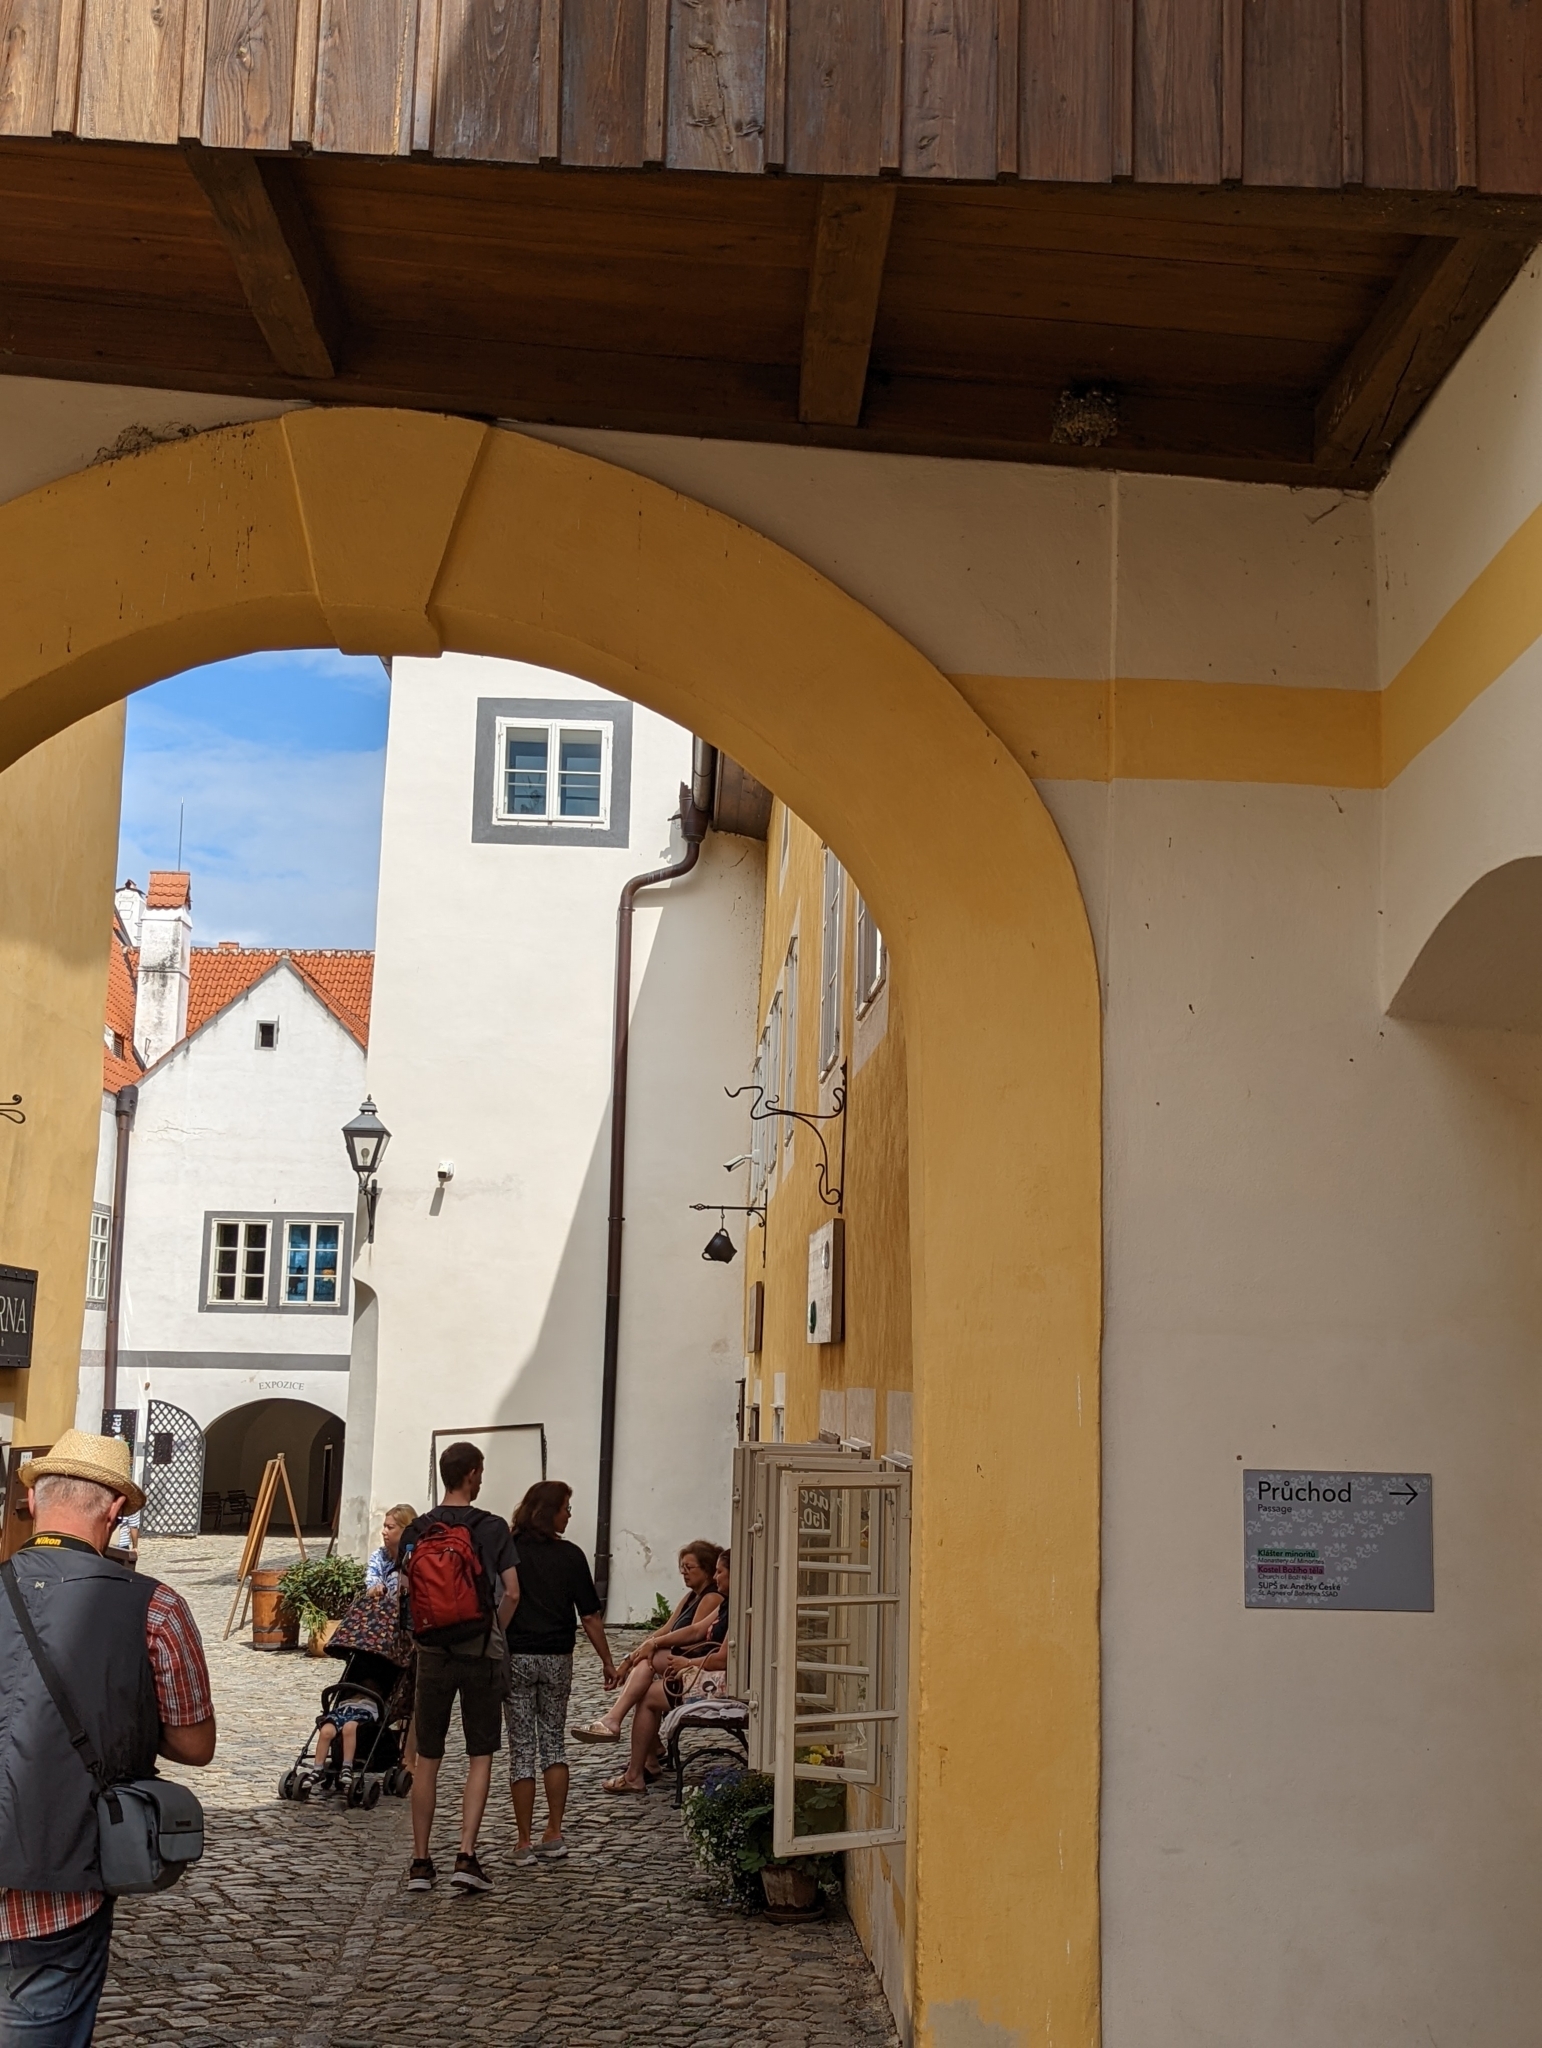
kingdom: Animalia
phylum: Chordata
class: Aves
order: Passeriformes
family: Hirundinidae
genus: Hirundo
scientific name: Hirundo rustica
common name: Barn swallow
